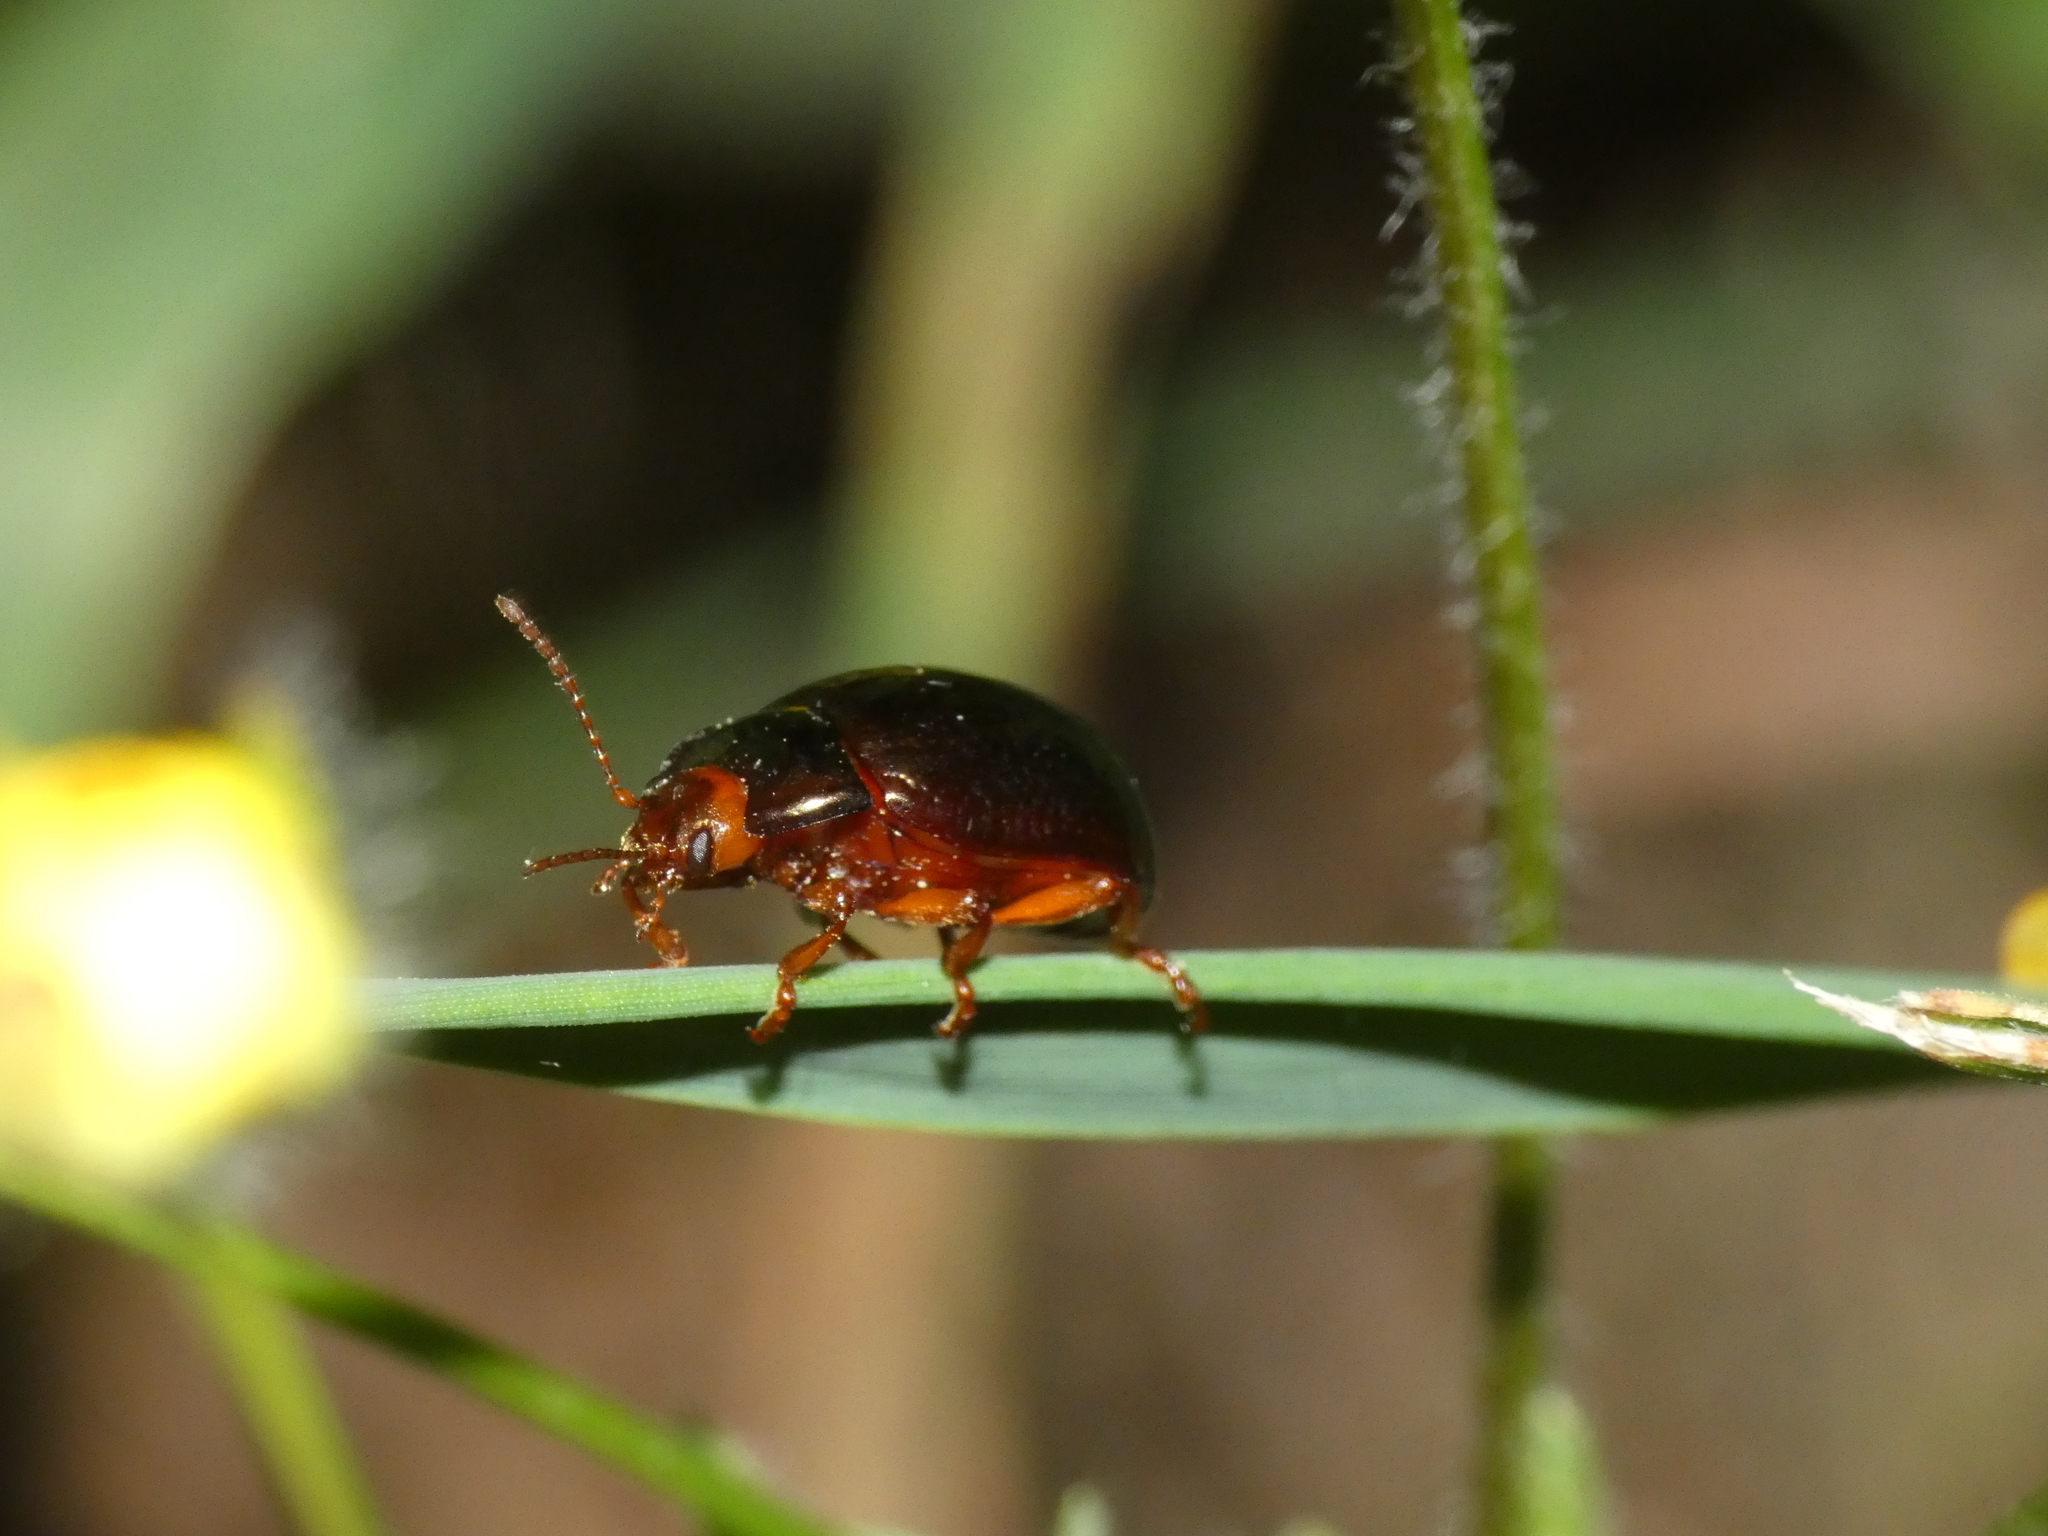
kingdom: Animalia
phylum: Arthropoda
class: Insecta
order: Coleoptera
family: Chrysomelidae
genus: Chrysolina
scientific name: Chrysolina bankii
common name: Leaf beetle
